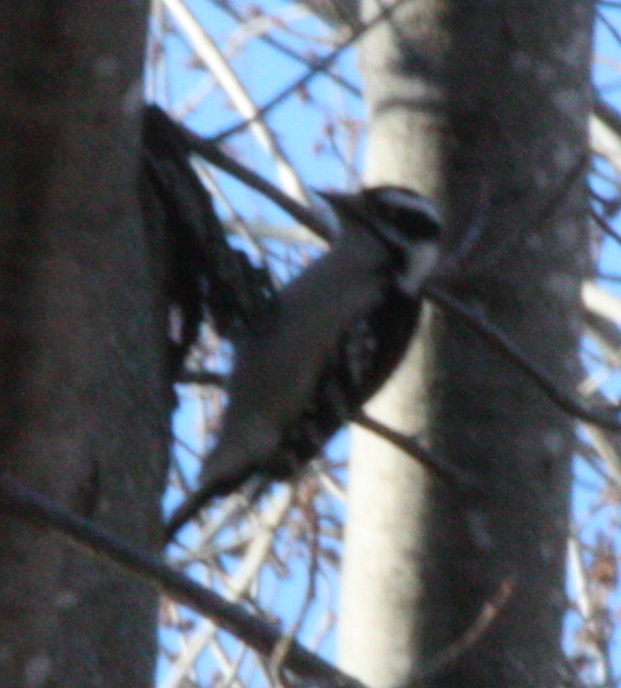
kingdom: Animalia
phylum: Chordata
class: Aves
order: Piciformes
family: Picidae
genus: Dryobates
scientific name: Dryobates pubescens
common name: Downy woodpecker
